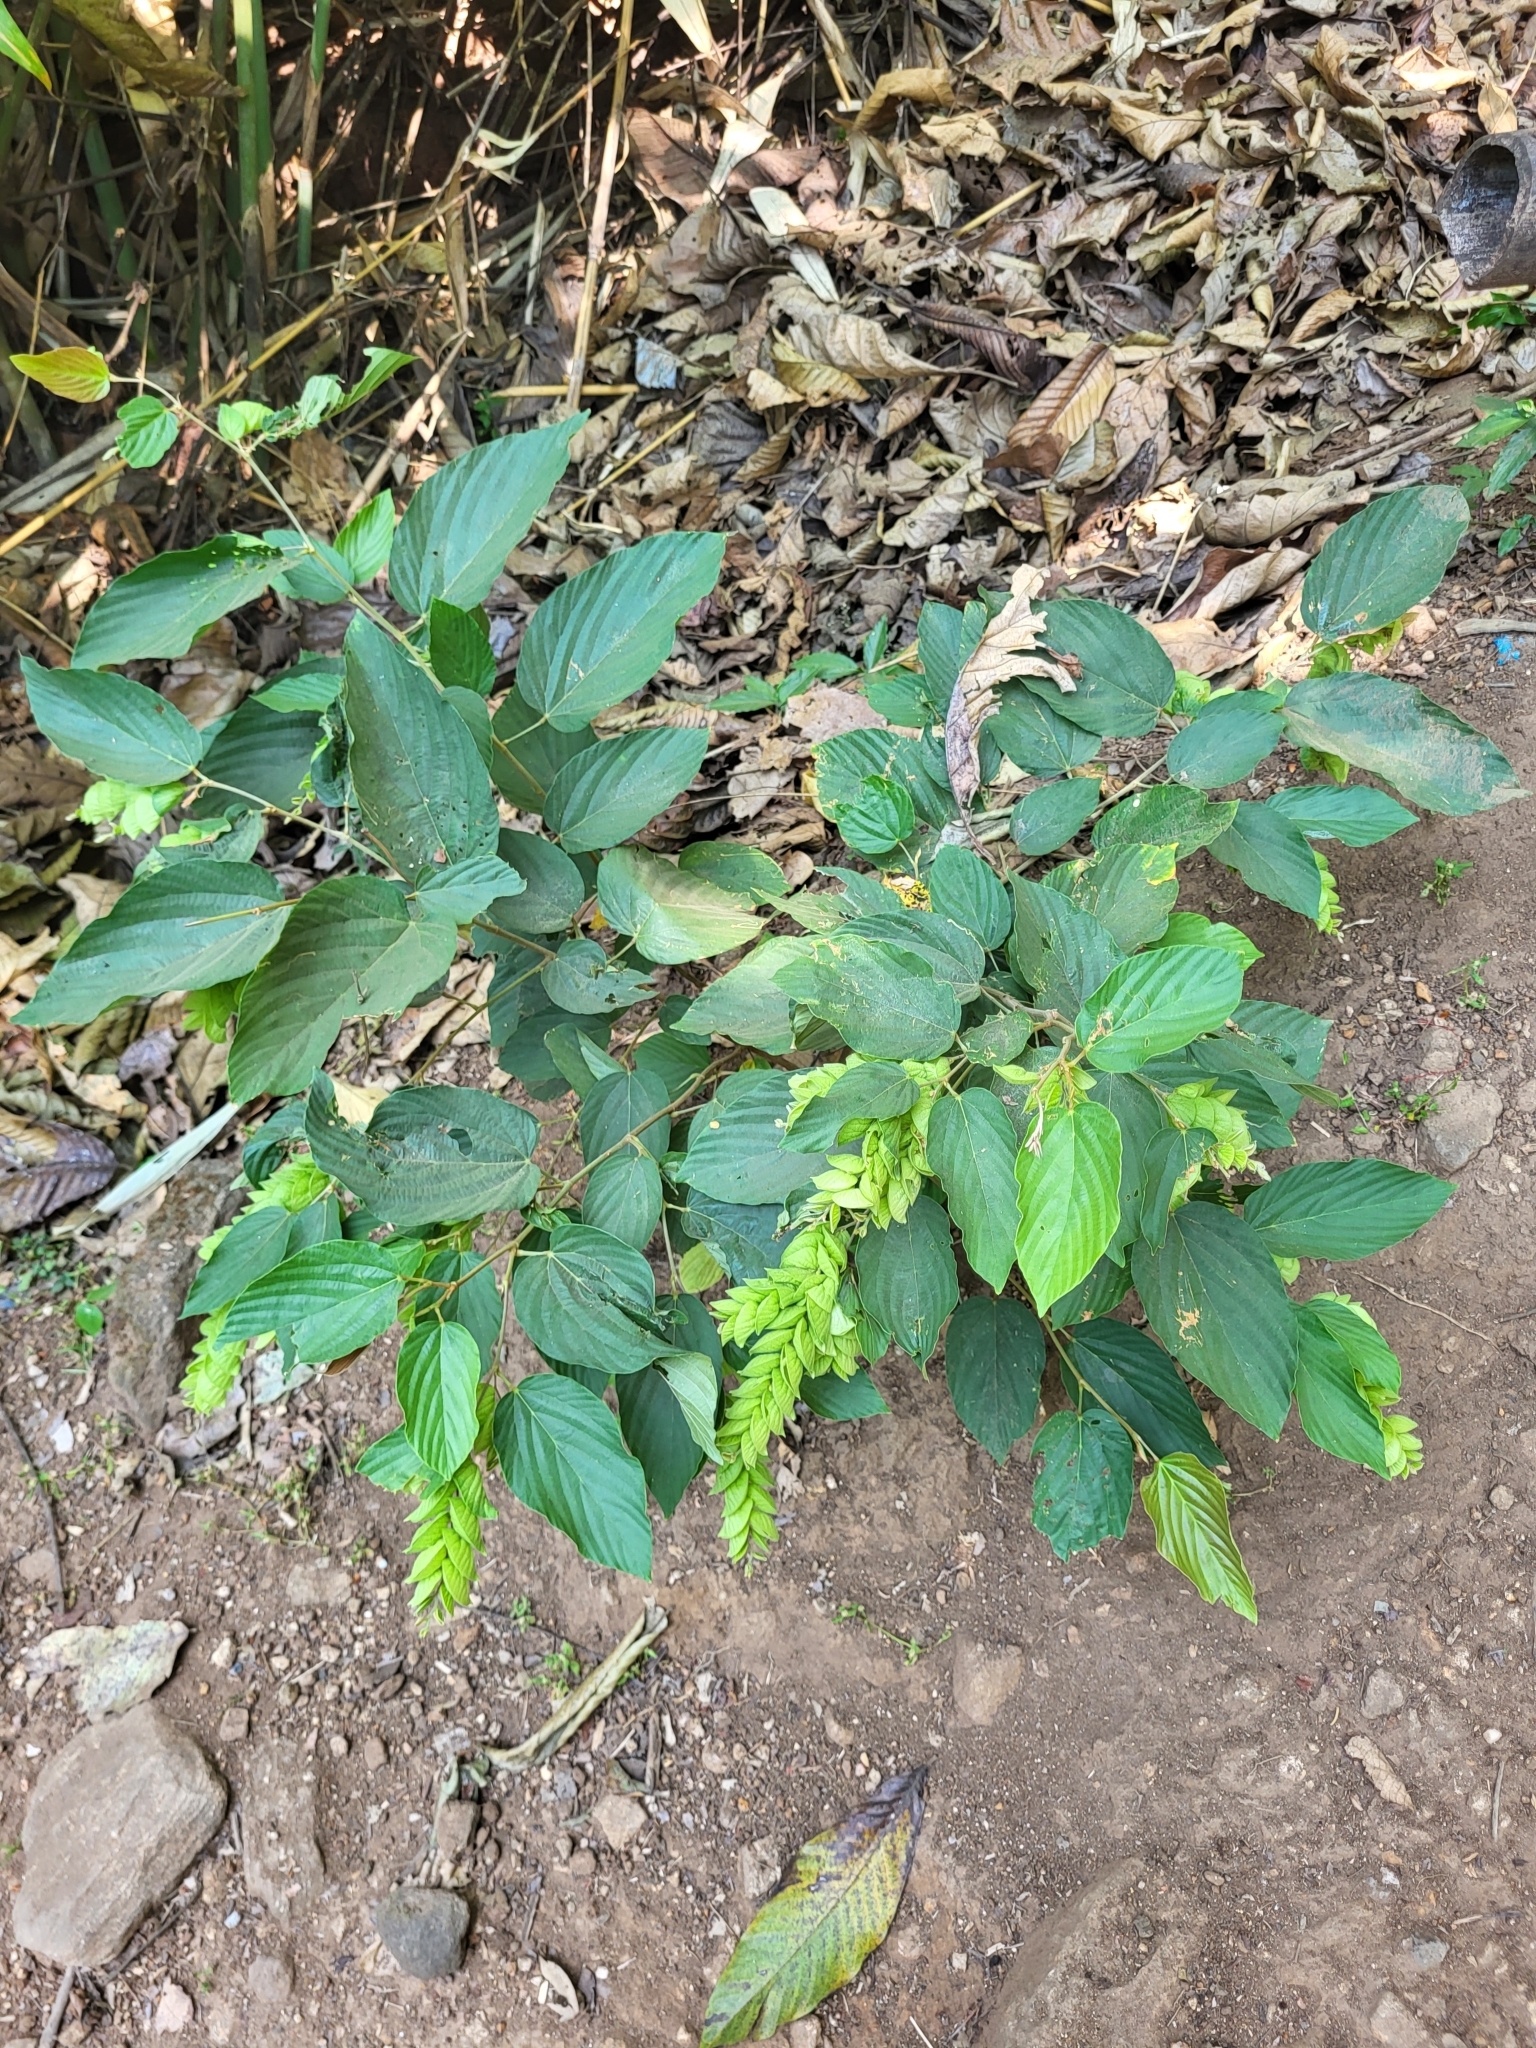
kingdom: Plantae
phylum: Tracheophyta
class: Magnoliopsida
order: Fabales
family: Fabaceae
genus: Flemingia
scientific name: Flemingia strobilifera
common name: Wild hops
